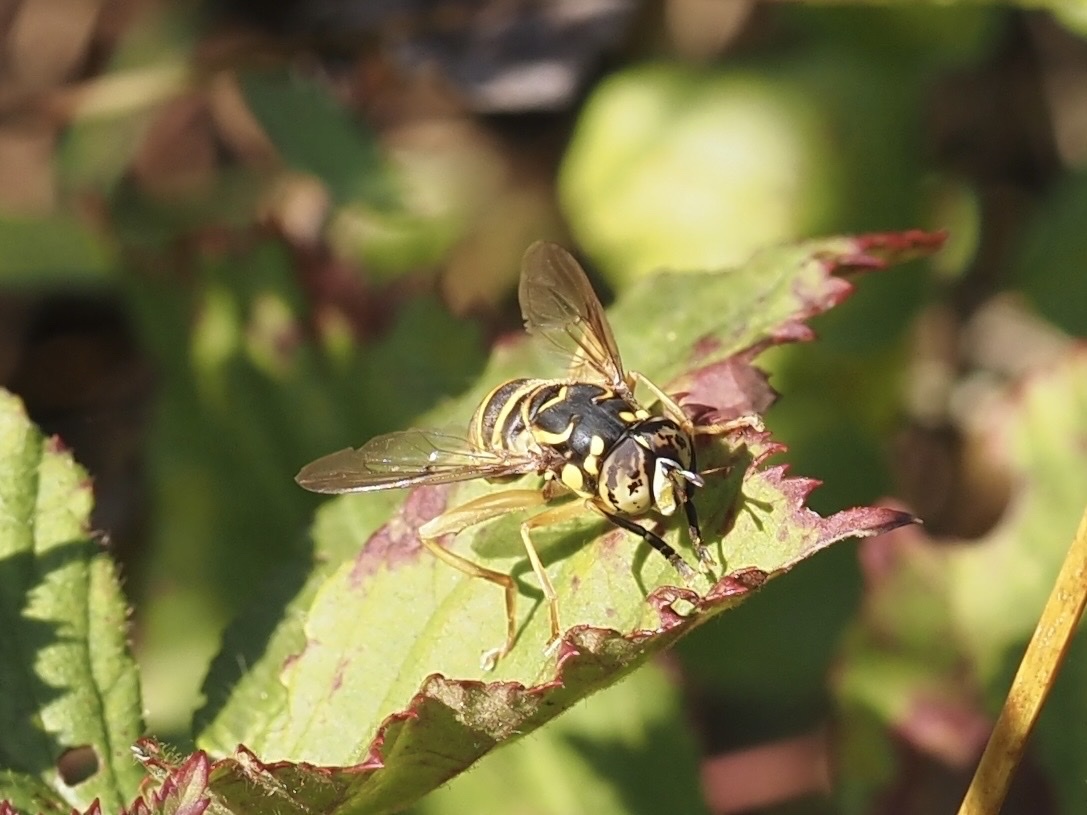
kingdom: Animalia
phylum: Arthropoda
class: Insecta
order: Diptera
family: Syrphidae
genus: Spilomyia
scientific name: Spilomyia longicornis
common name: Eastern hornet fly
